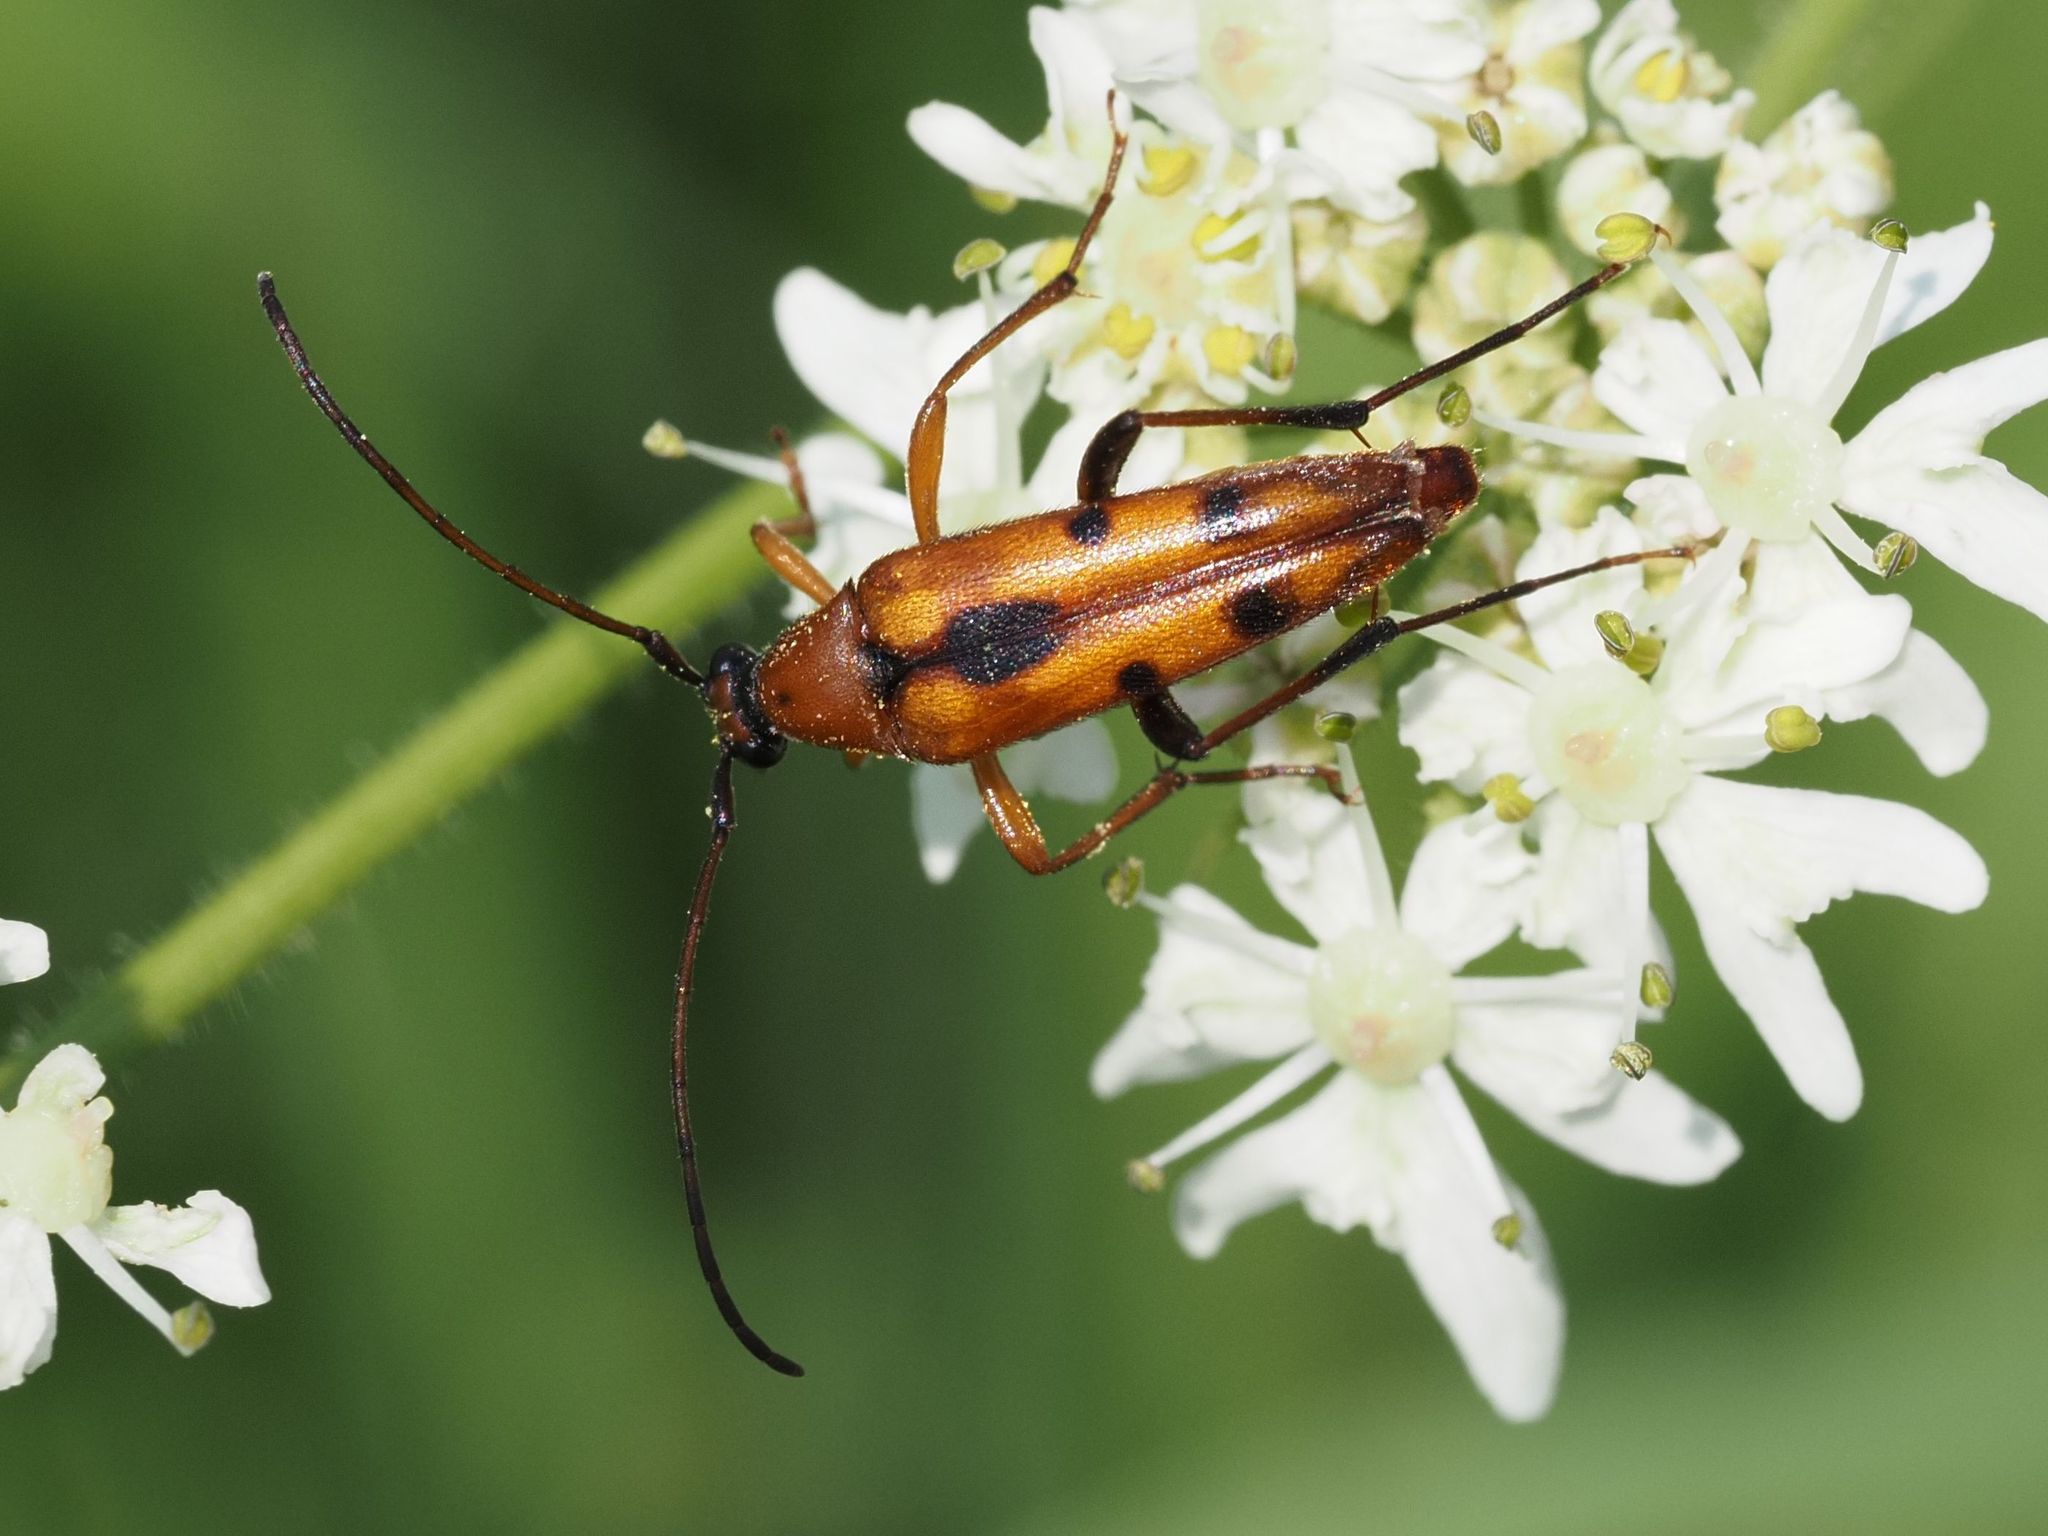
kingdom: Animalia
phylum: Arthropoda
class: Insecta
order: Coleoptera
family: Cerambycidae
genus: Stenurella
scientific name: Stenurella septempunctata
